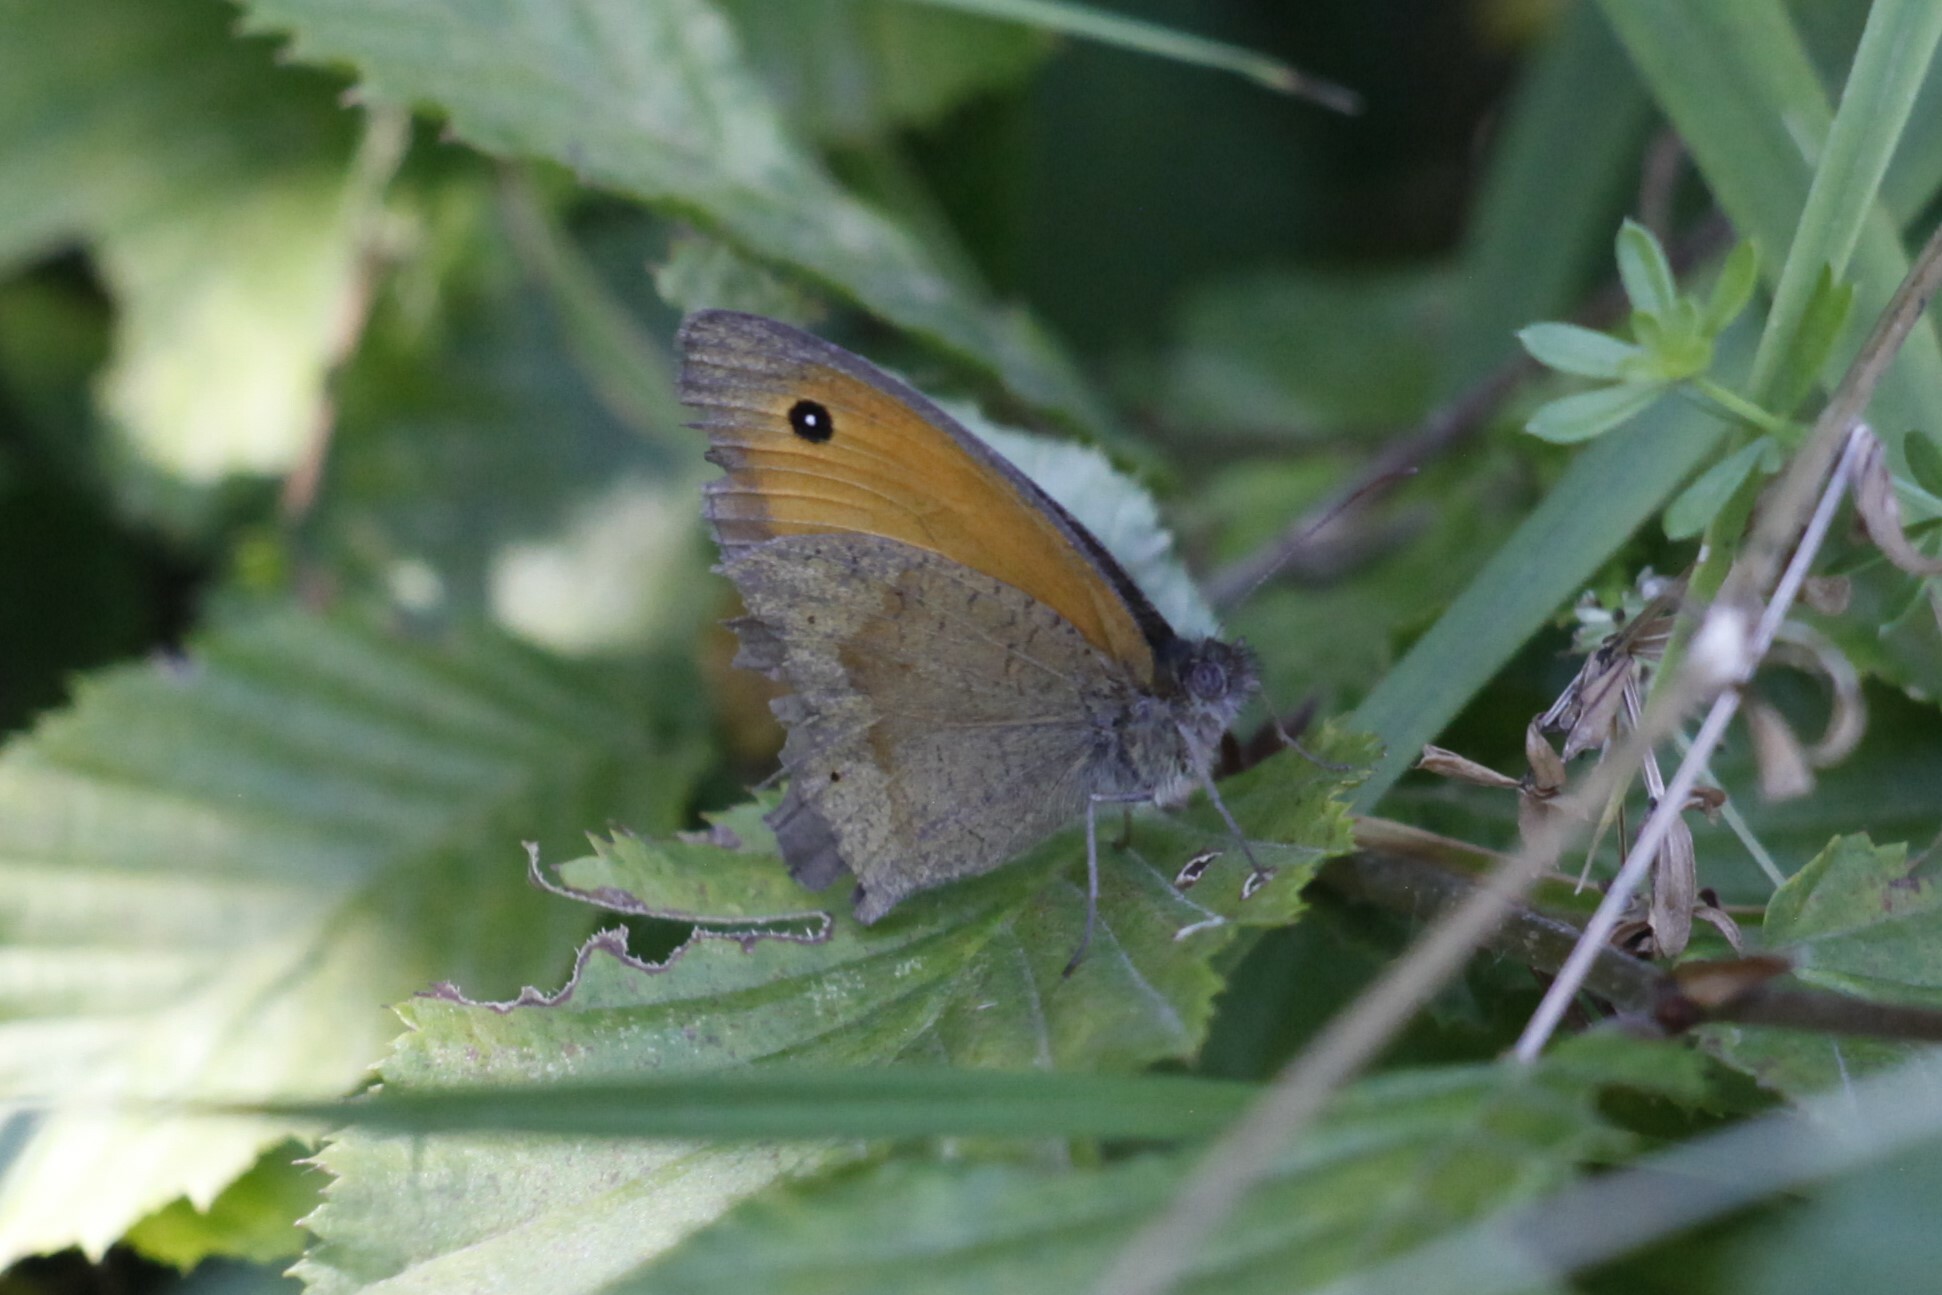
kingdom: Animalia
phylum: Arthropoda
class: Insecta
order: Lepidoptera
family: Nymphalidae
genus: Maniola
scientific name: Maniola jurtina
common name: Meadow brown
